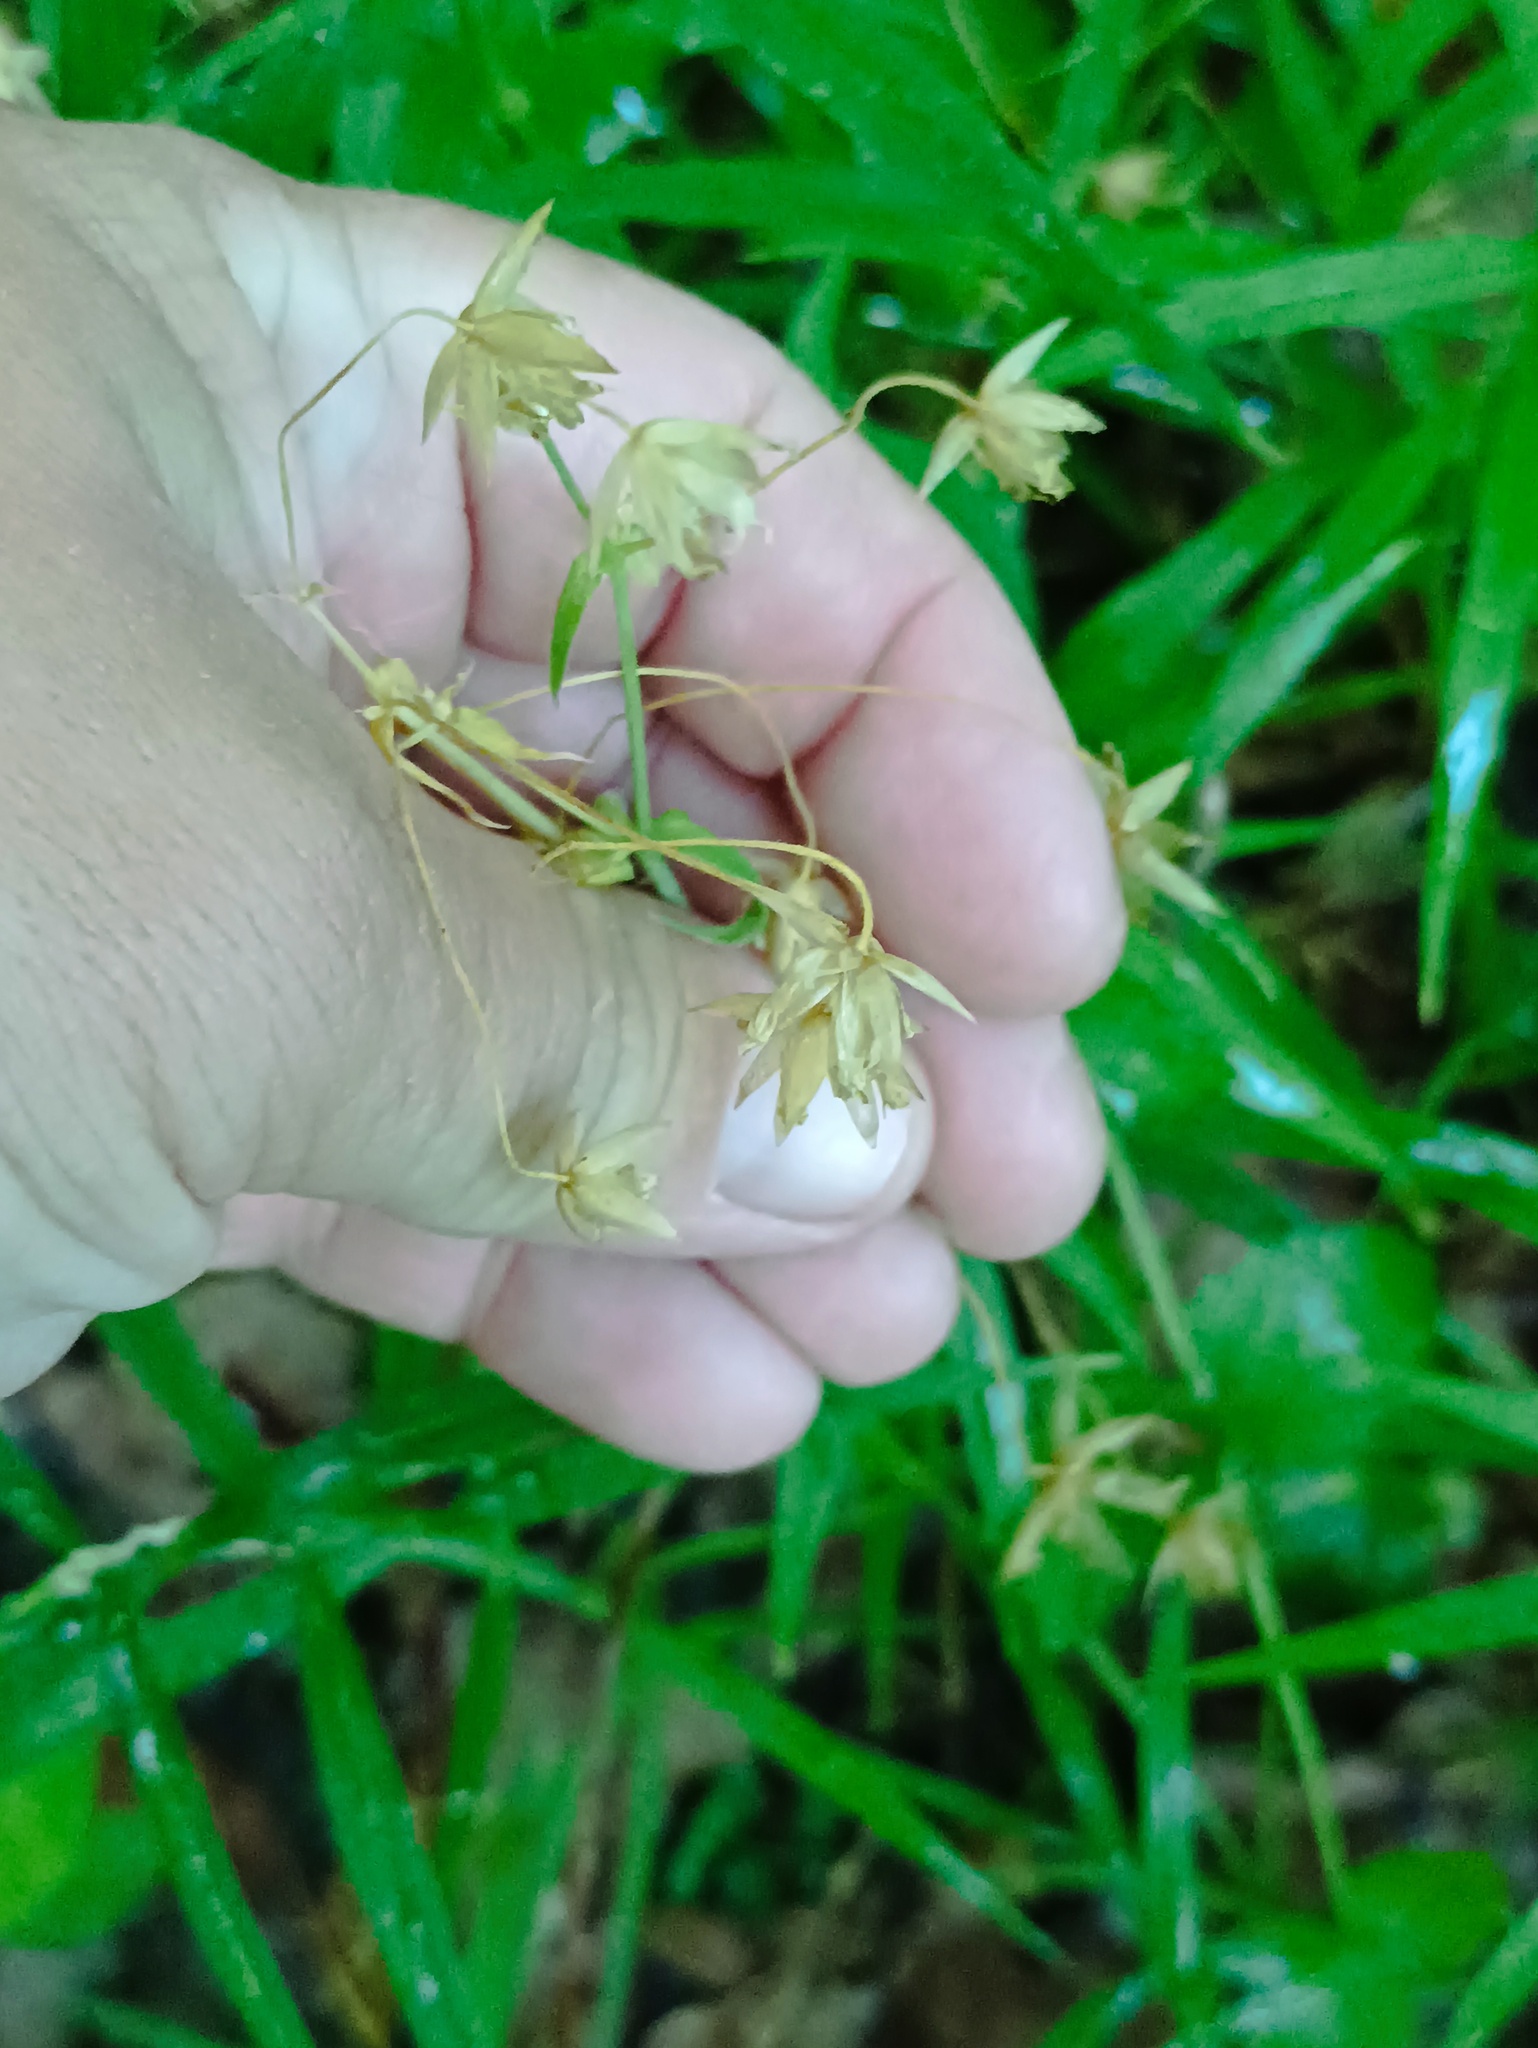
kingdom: Plantae
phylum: Tracheophyta
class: Magnoliopsida
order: Caryophyllales
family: Caryophyllaceae
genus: Rabelera
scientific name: Rabelera holostea
